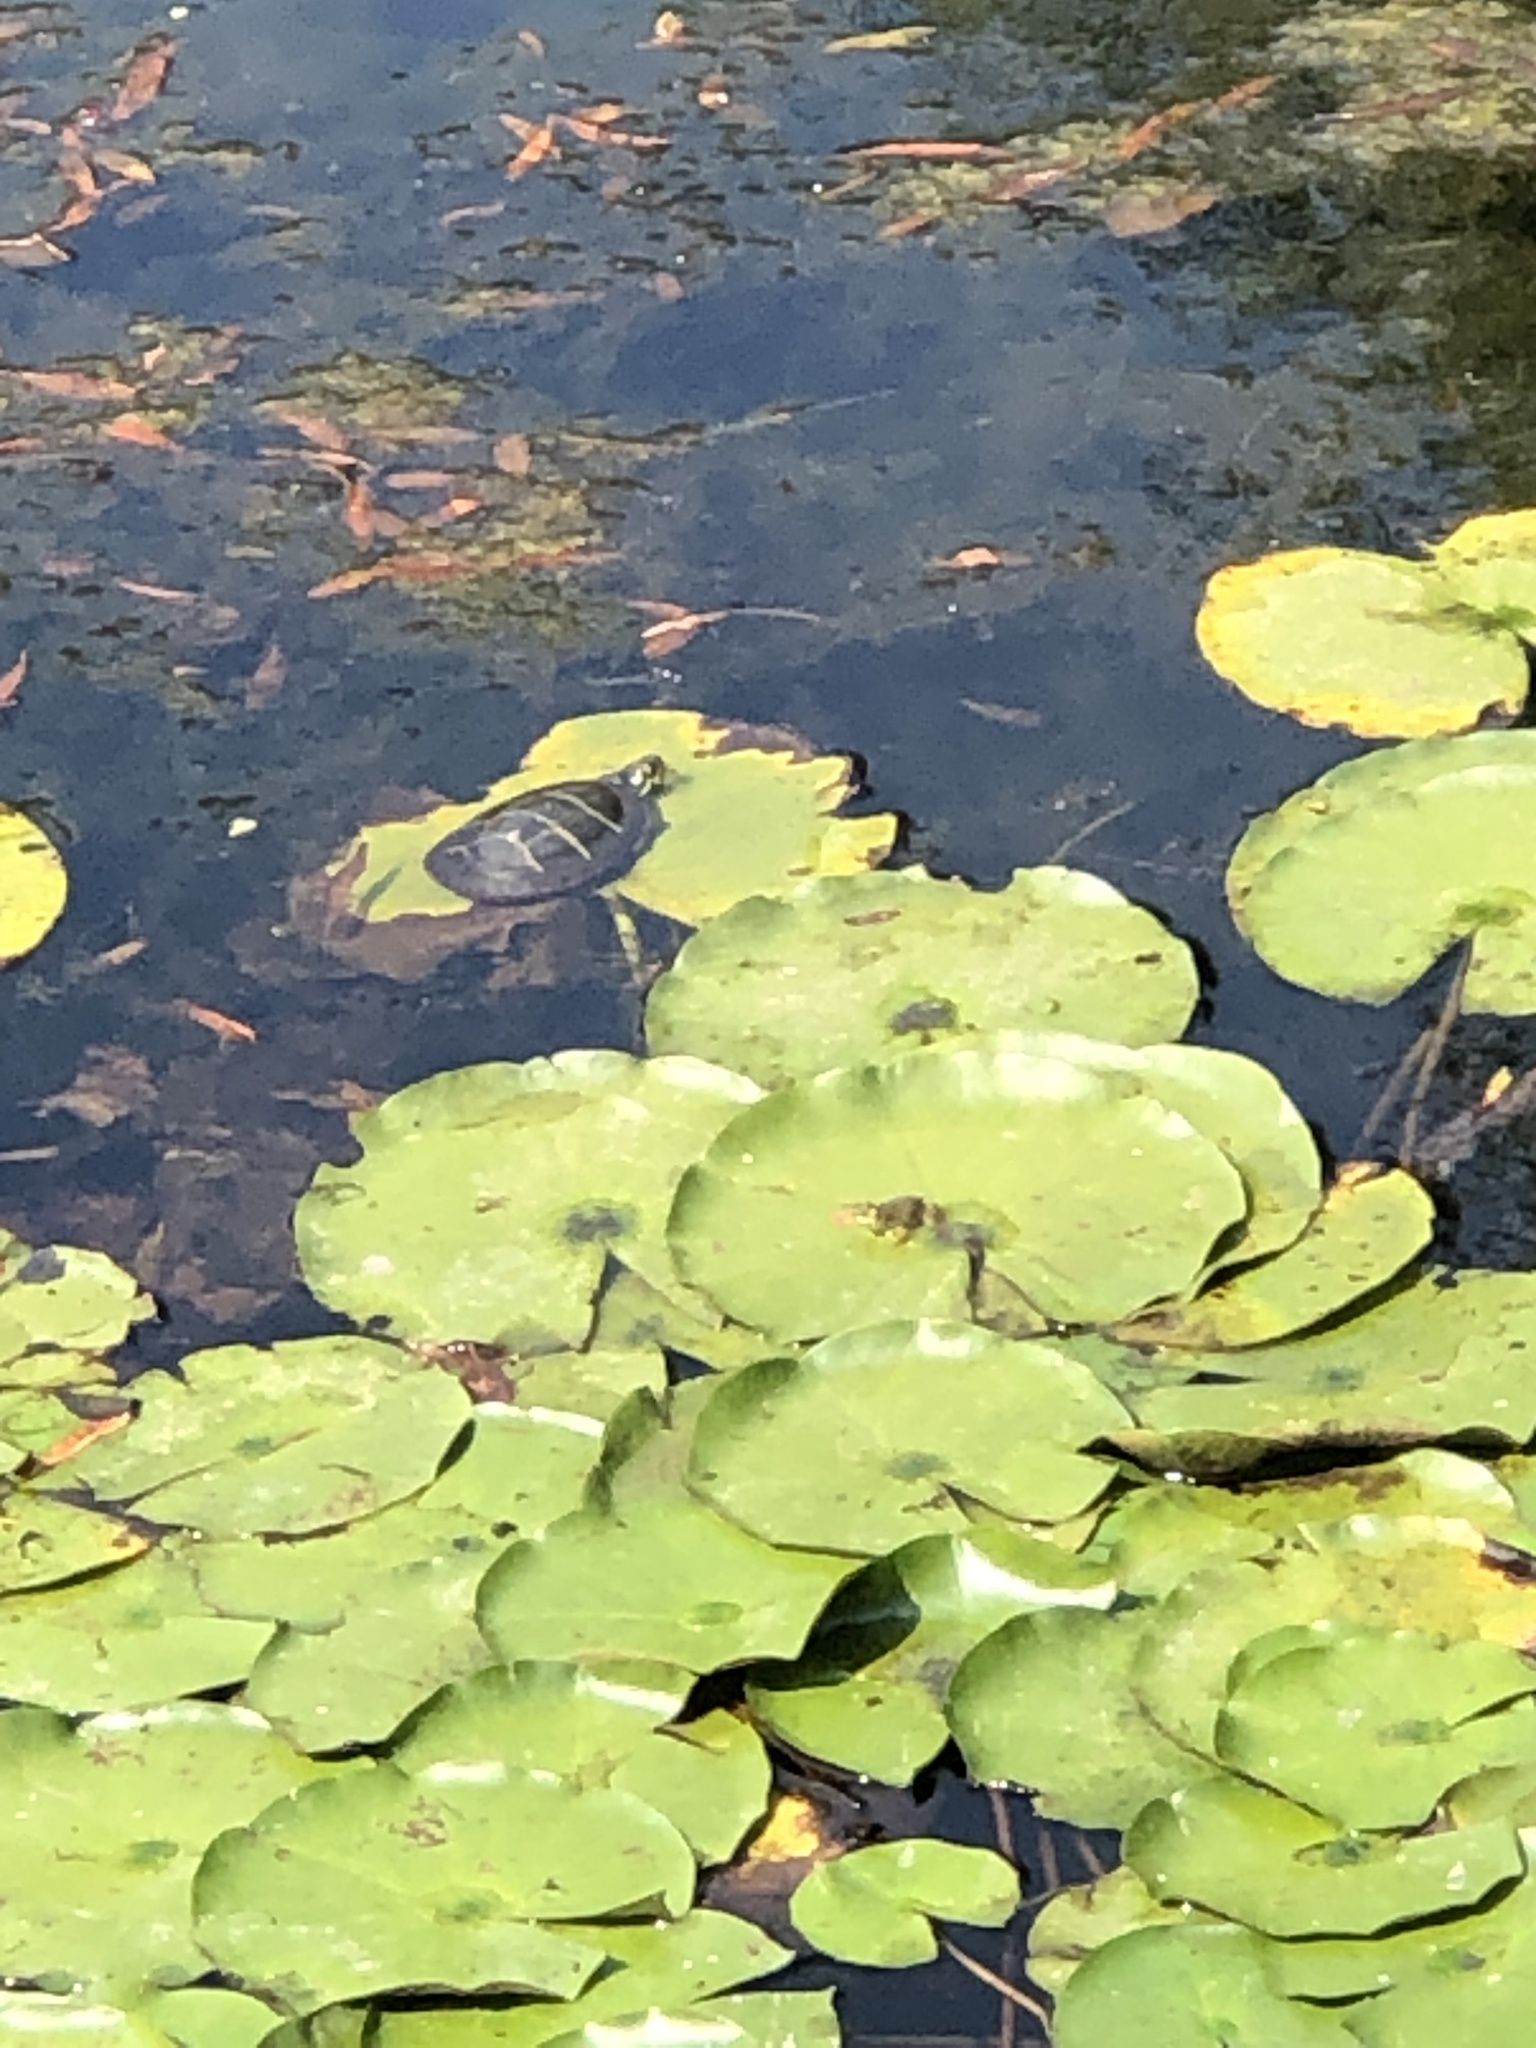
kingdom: Animalia
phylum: Chordata
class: Testudines
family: Emydidae
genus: Chrysemys
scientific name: Chrysemys picta
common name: Painted turtle
